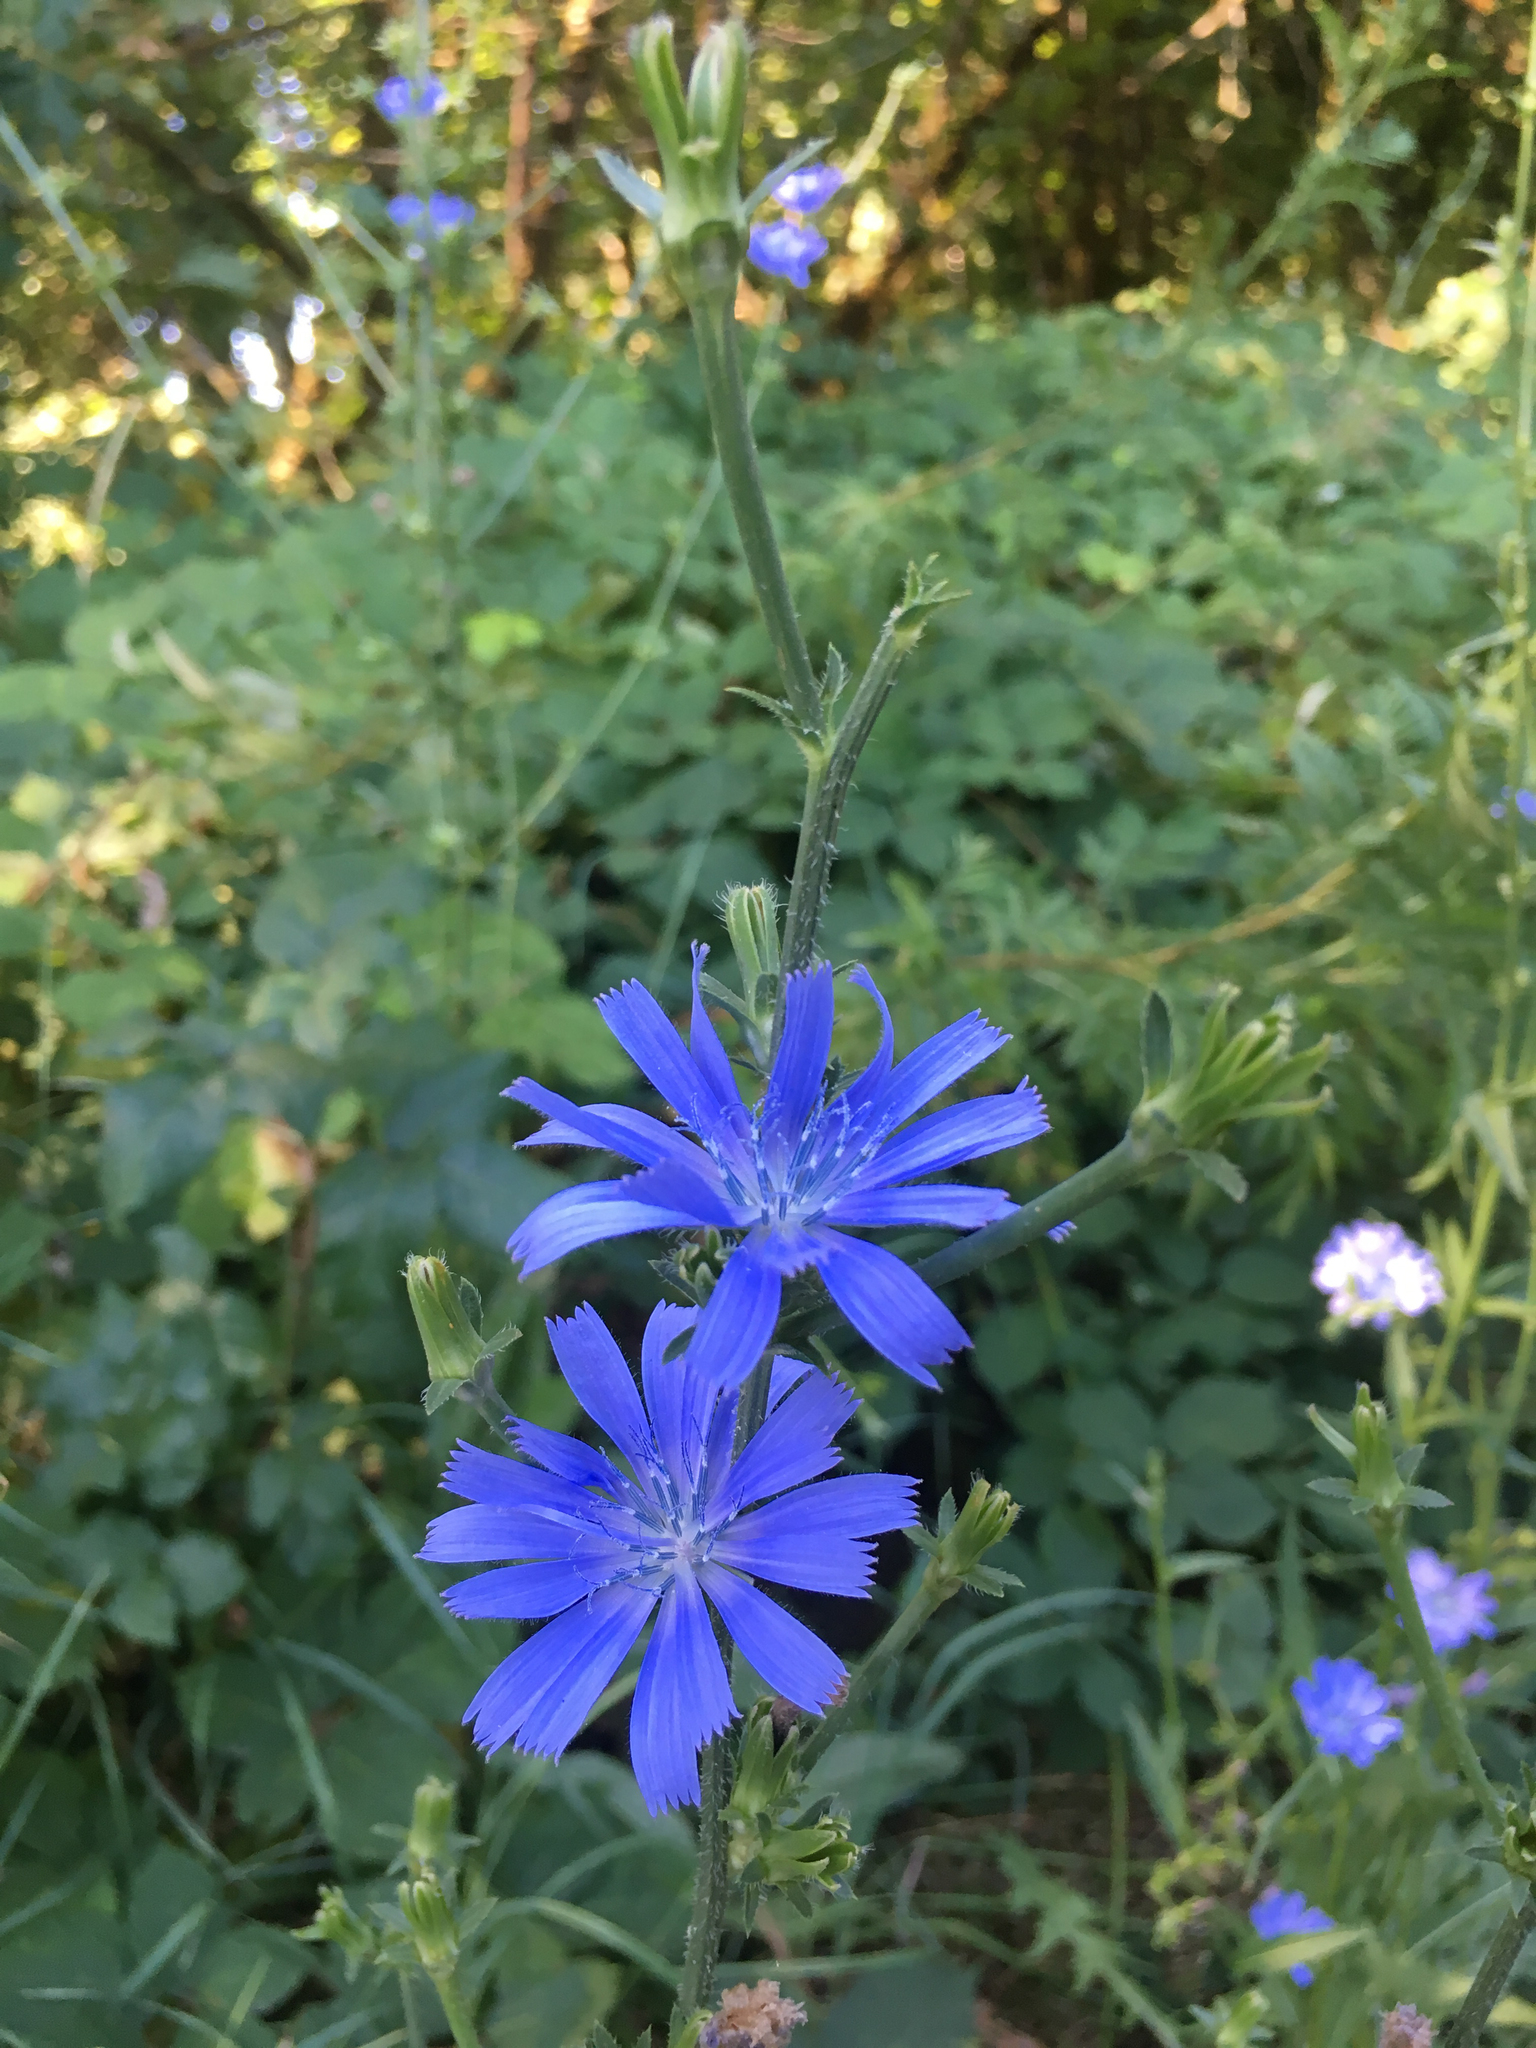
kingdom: Plantae
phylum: Tracheophyta
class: Magnoliopsida
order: Asterales
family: Asteraceae
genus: Cichorium
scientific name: Cichorium intybus
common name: Chicory
